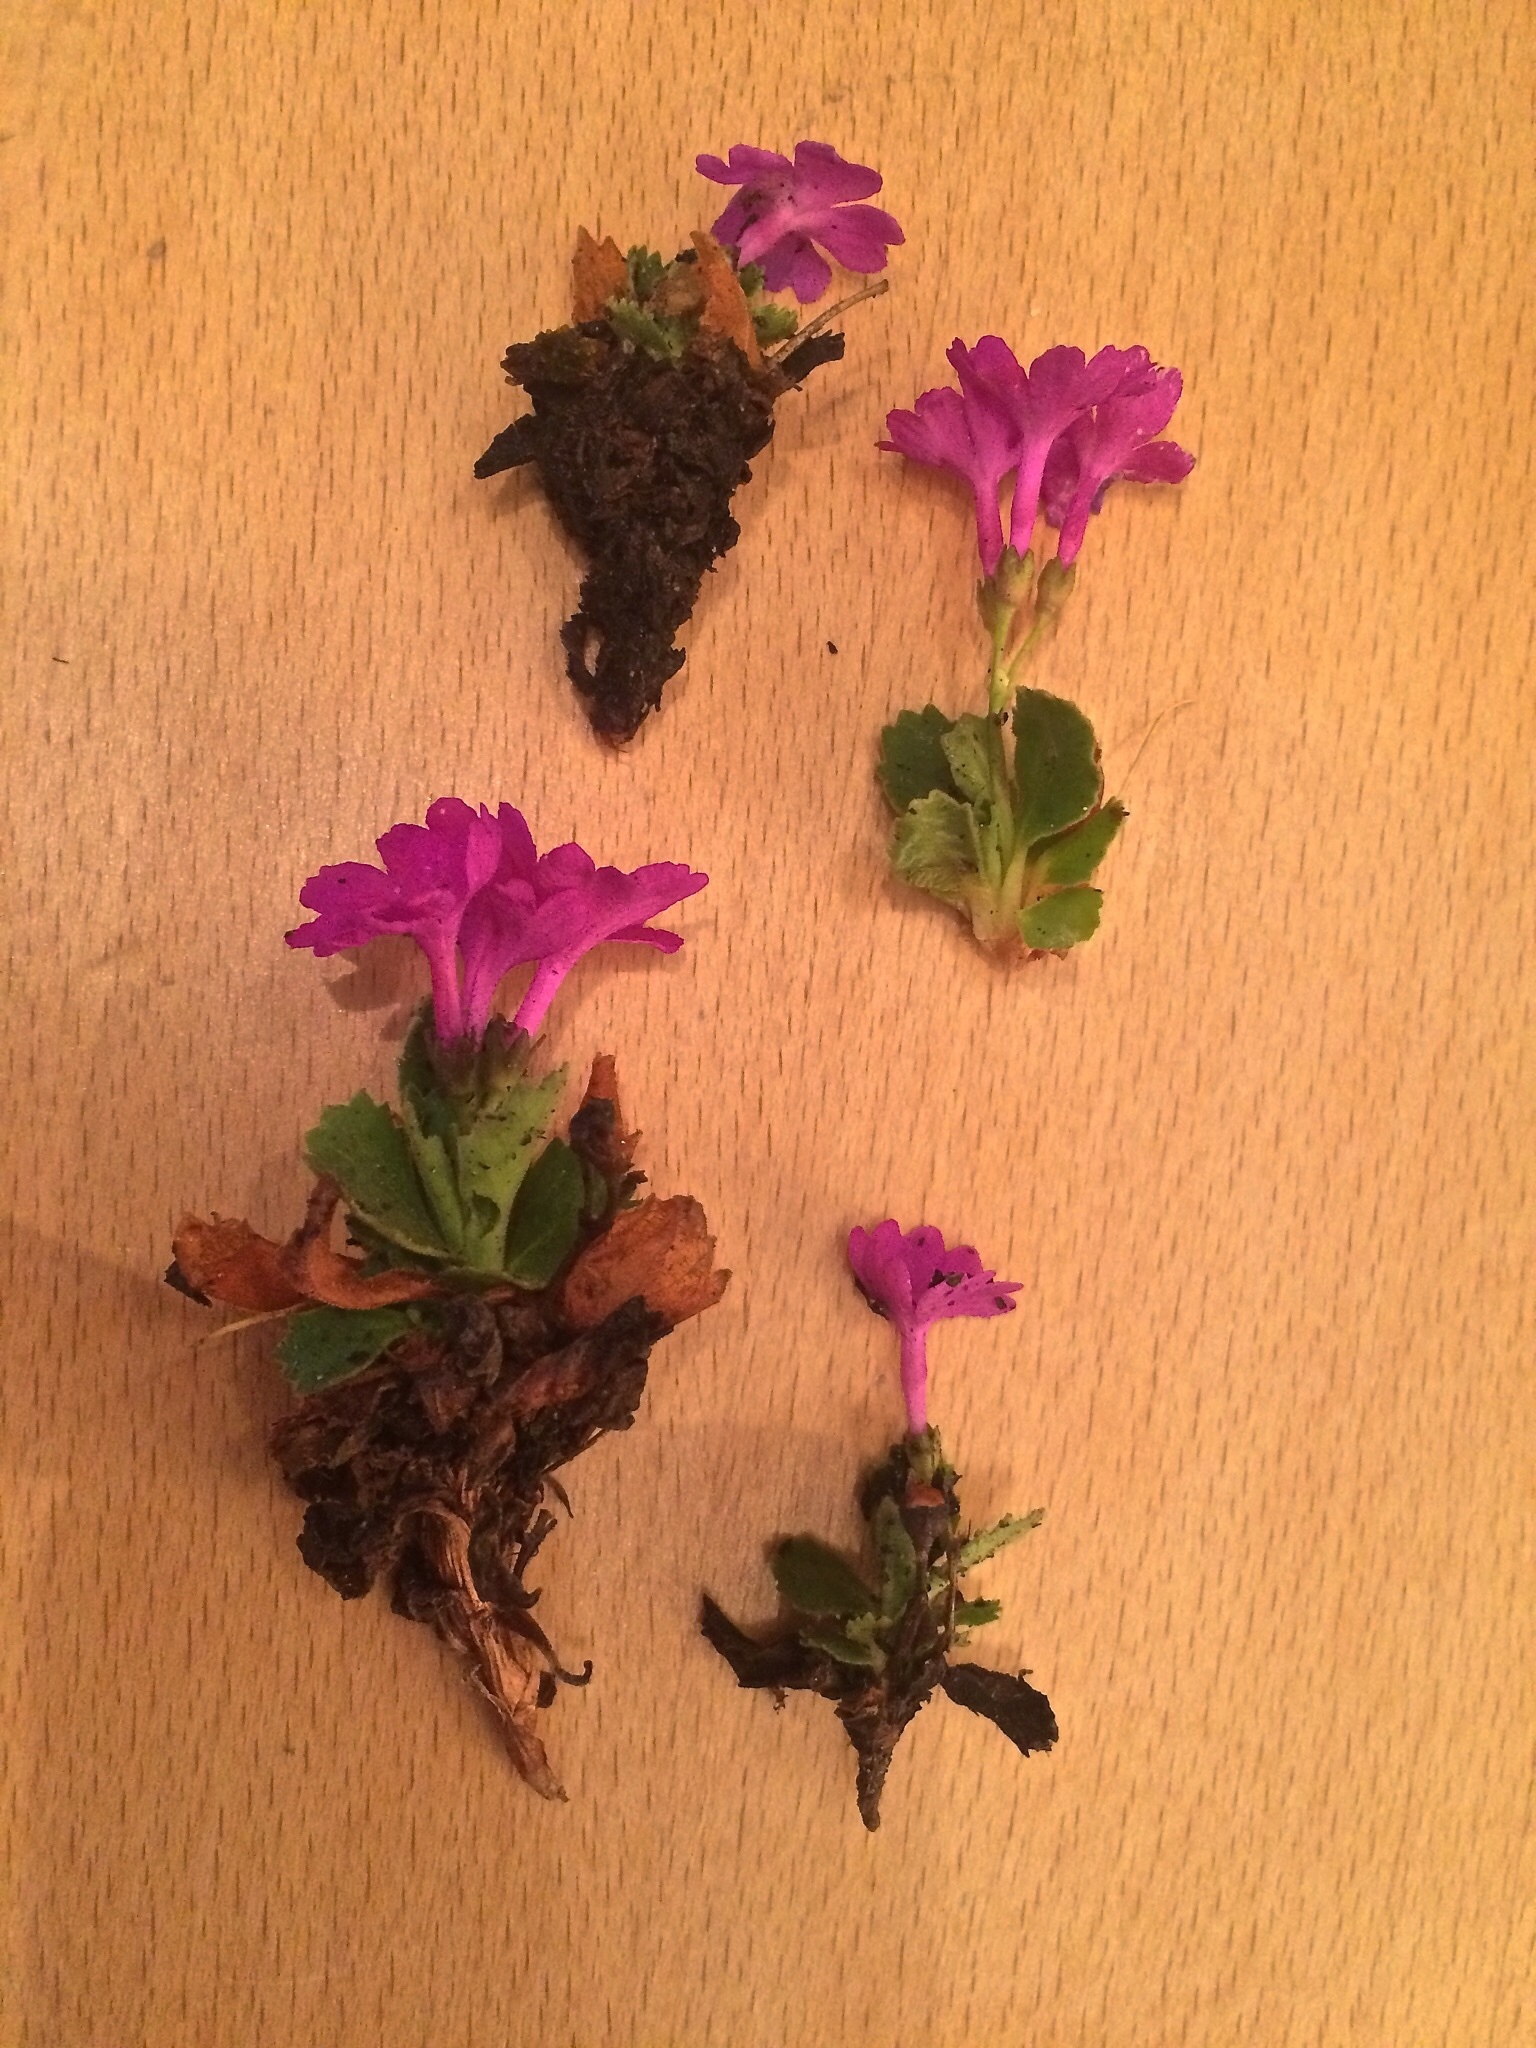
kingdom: Plantae
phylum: Tracheophyta
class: Magnoliopsida
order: Ericales
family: Primulaceae
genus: Primula
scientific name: Primula hirsuta
